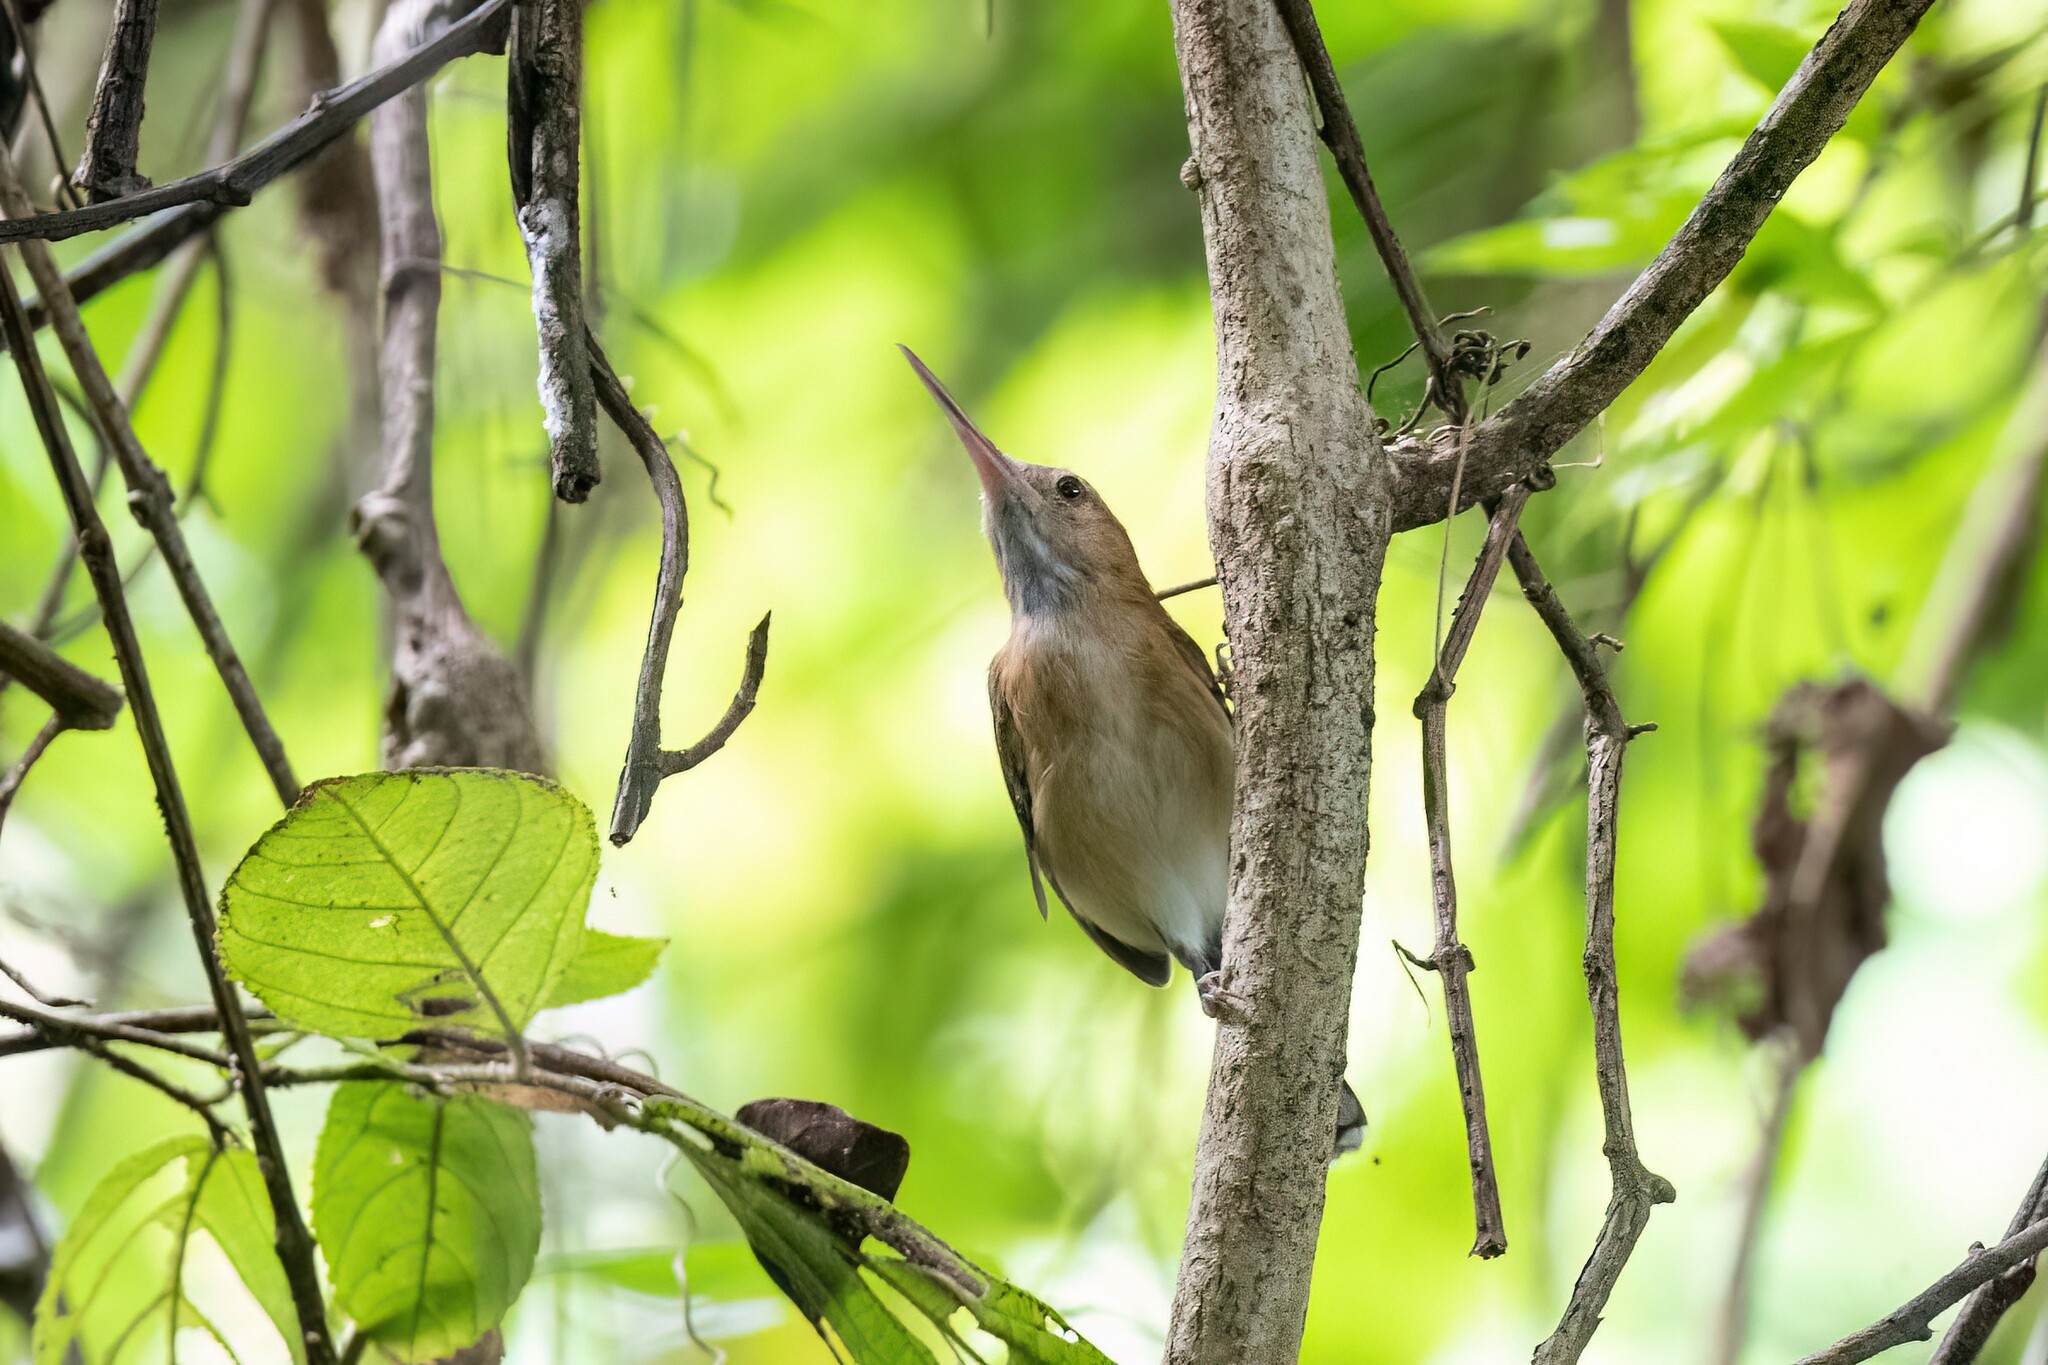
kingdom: Animalia
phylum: Chordata
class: Aves
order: Passeriformes
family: Polioptilidae
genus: Ramphocaenus
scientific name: Ramphocaenus melanurus
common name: Long-billed gnatwren
